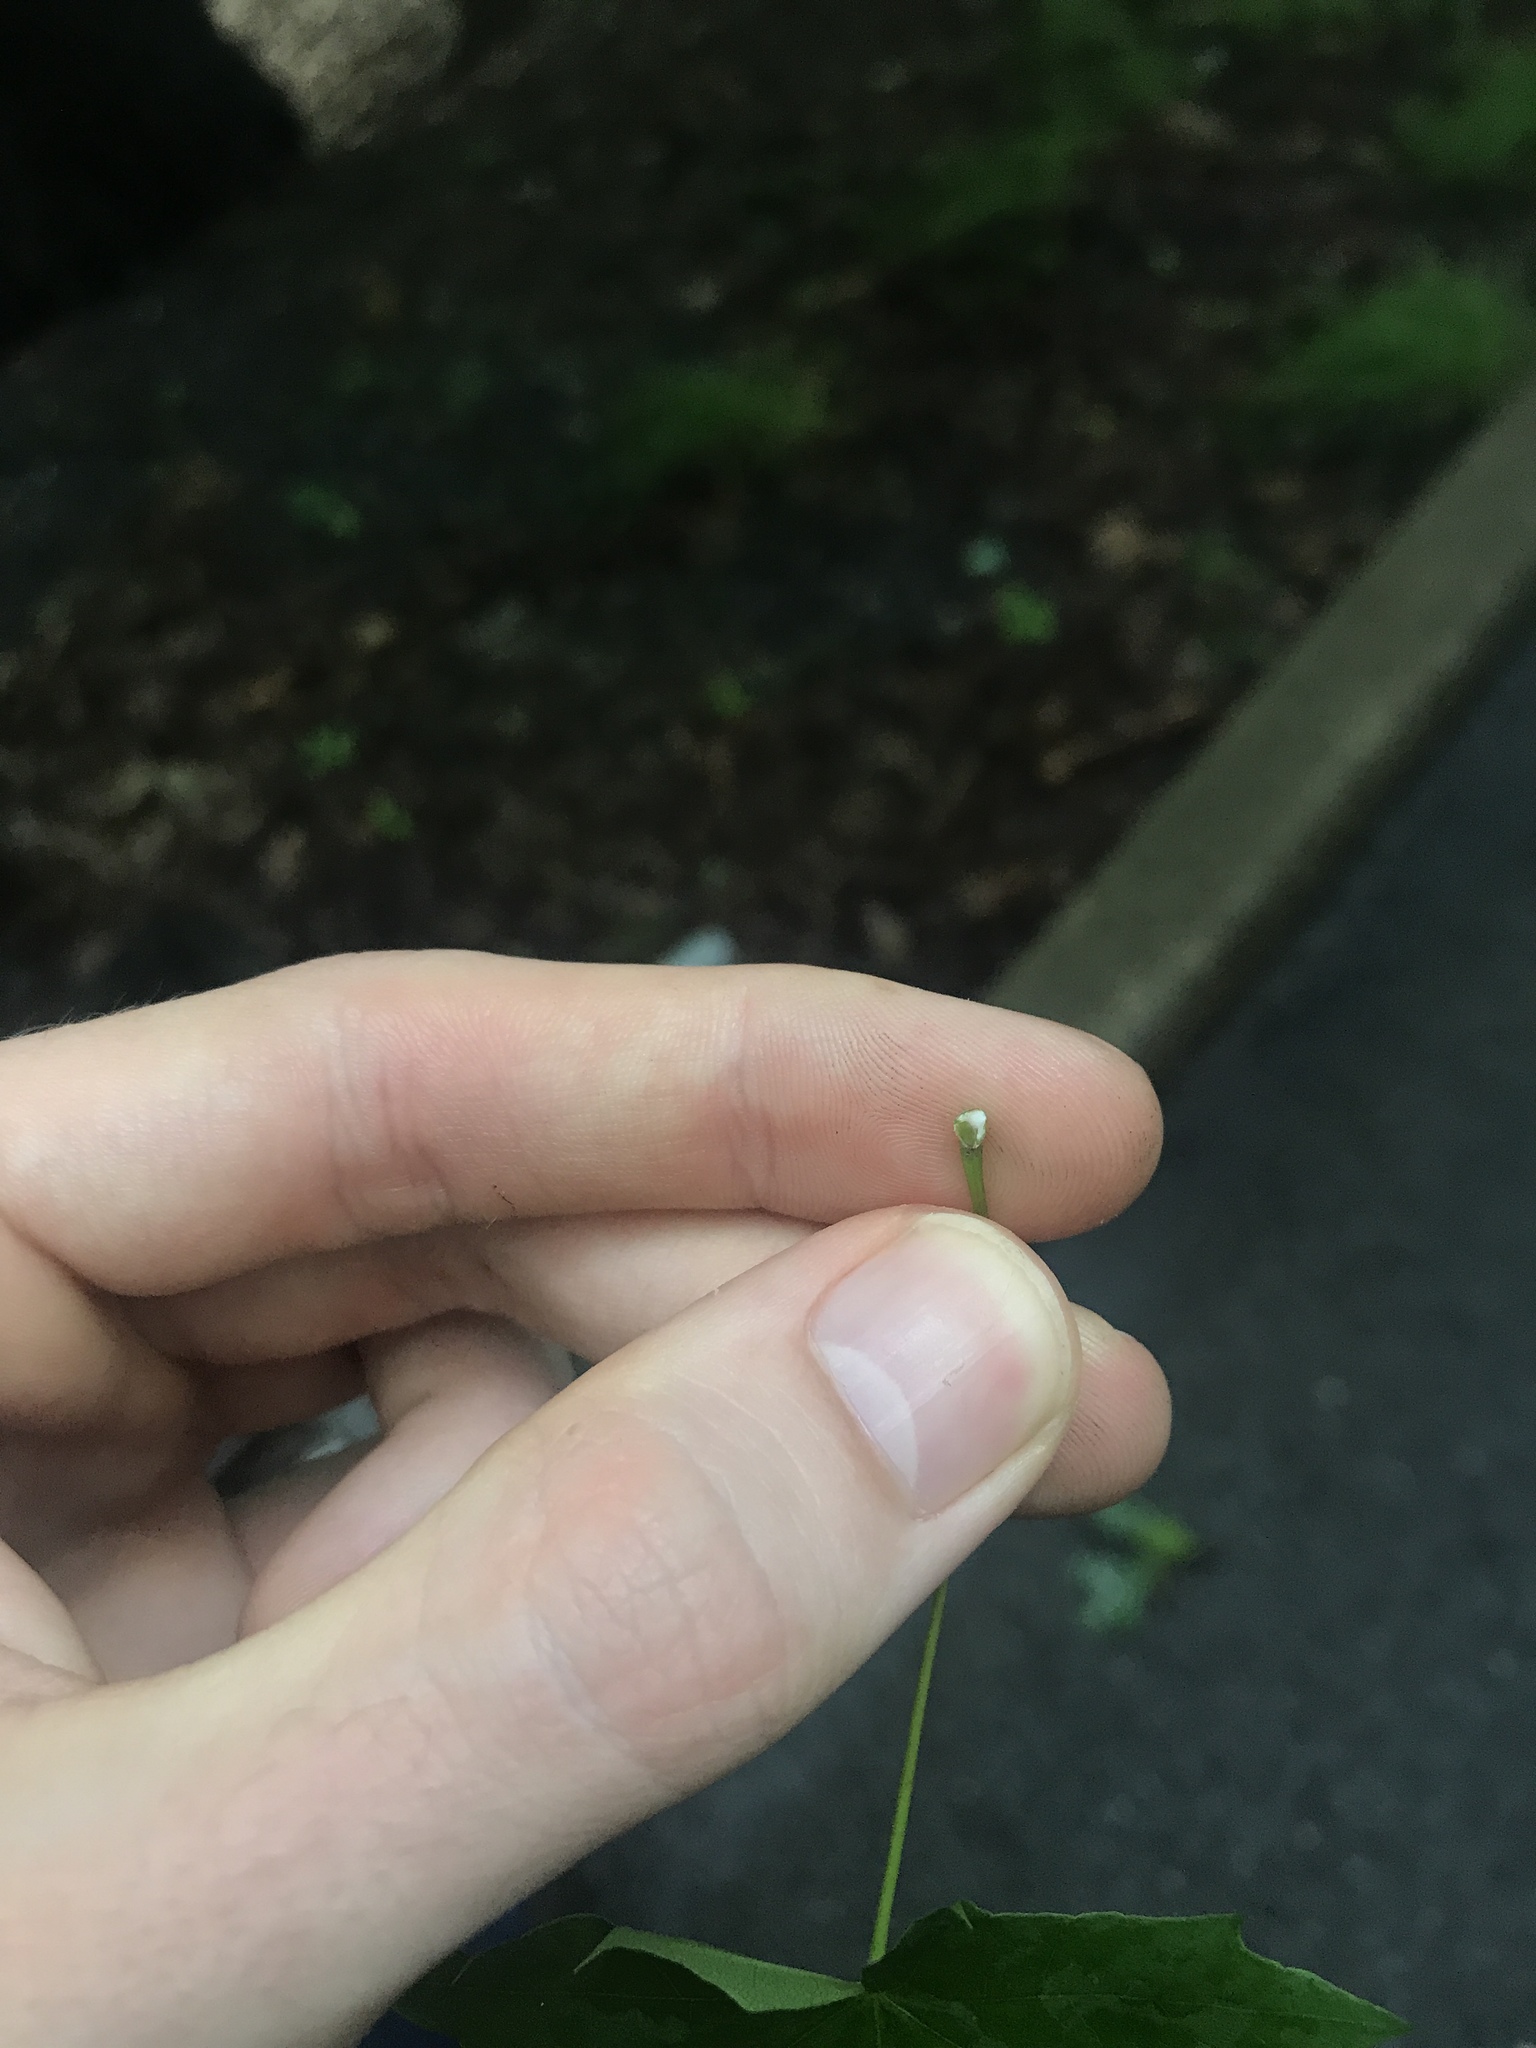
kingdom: Plantae
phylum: Tracheophyta
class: Magnoliopsida
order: Sapindales
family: Sapindaceae
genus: Acer
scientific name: Acer platanoides
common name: Norway maple
